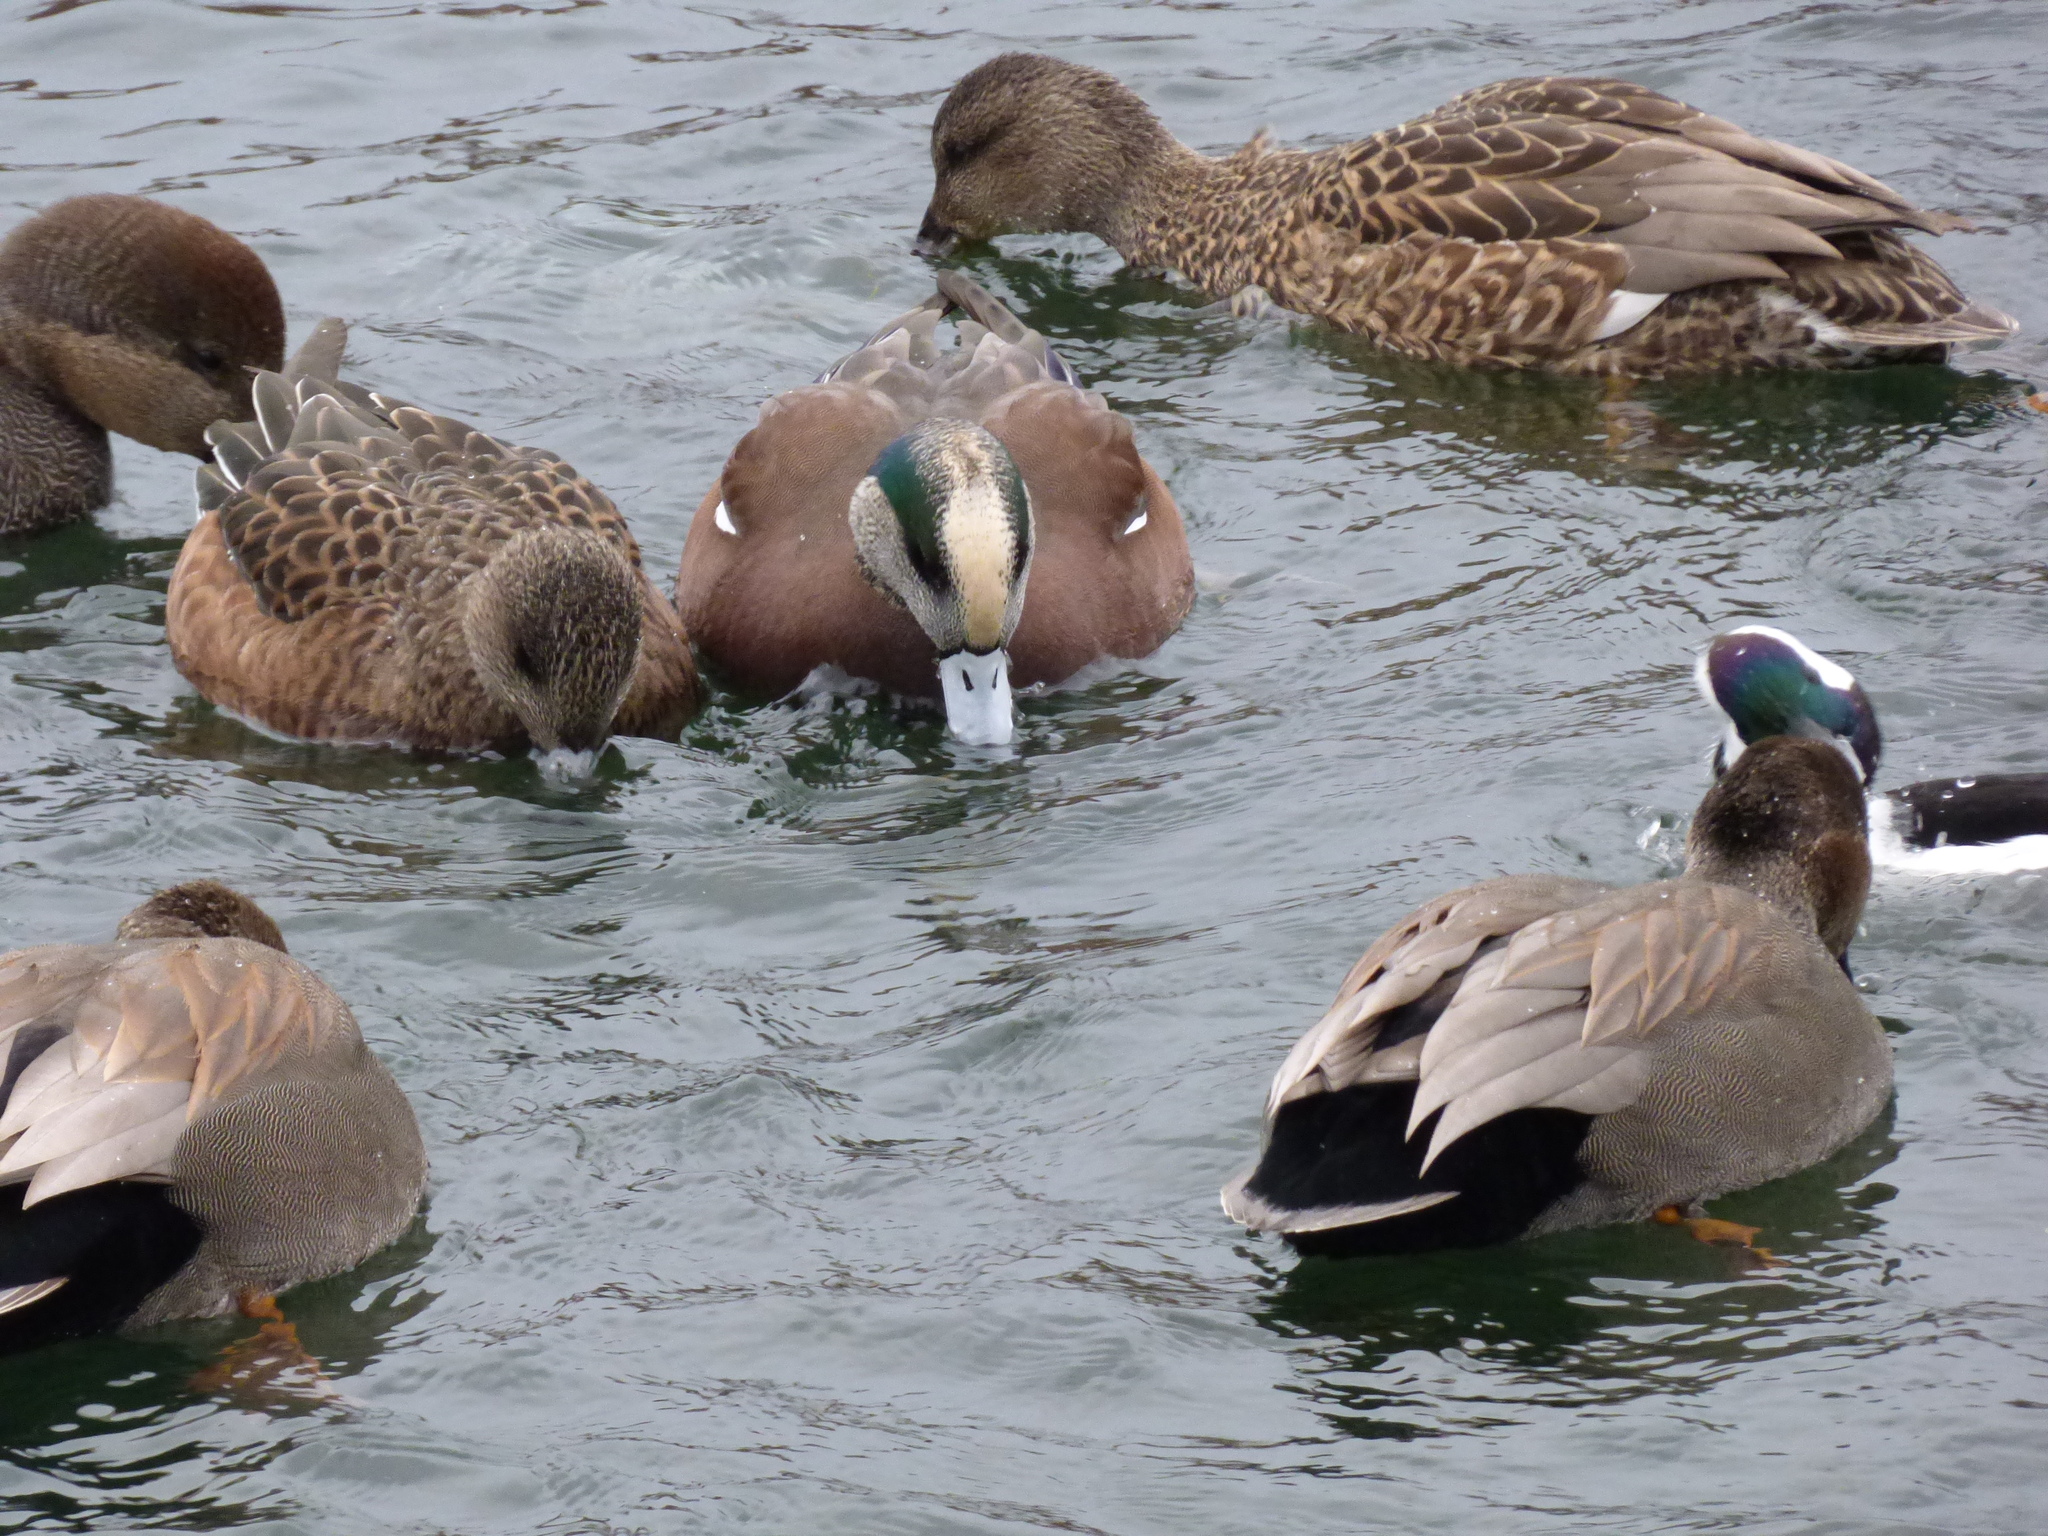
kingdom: Animalia
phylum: Chordata
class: Aves
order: Anseriformes
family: Anatidae
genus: Mareca
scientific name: Mareca americana
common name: American wigeon
